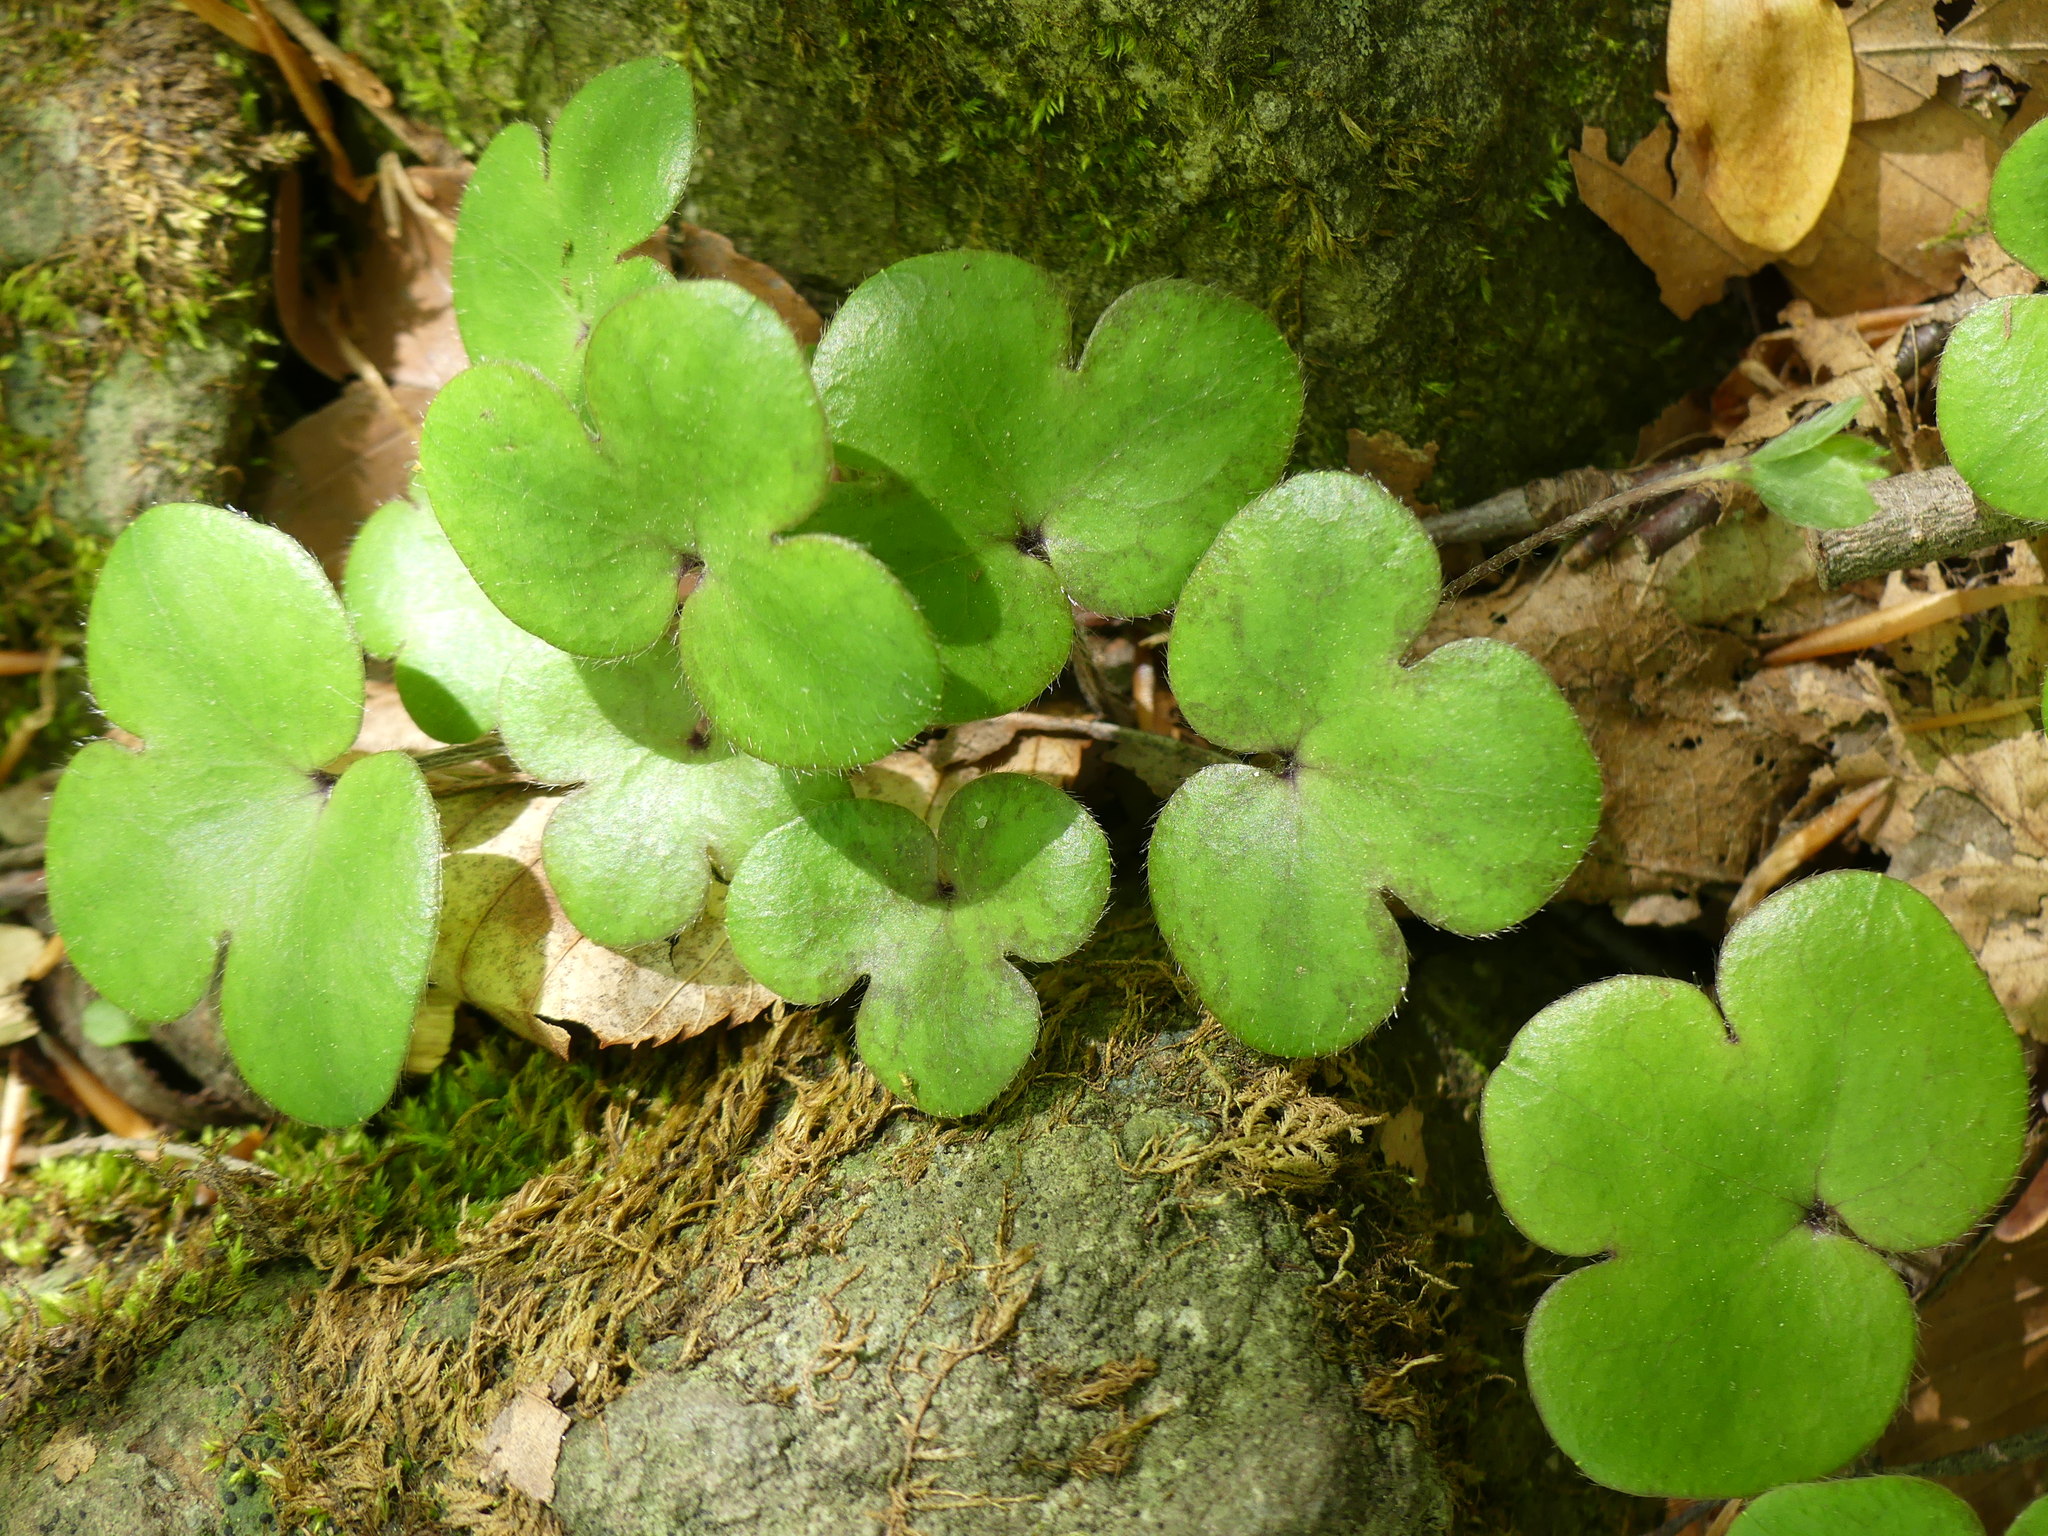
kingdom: Plantae
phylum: Tracheophyta
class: Magnoliopsida
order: Ranunculales
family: Ranunculaceae
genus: Hepatica
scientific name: Hepatica americana
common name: American hepatica
